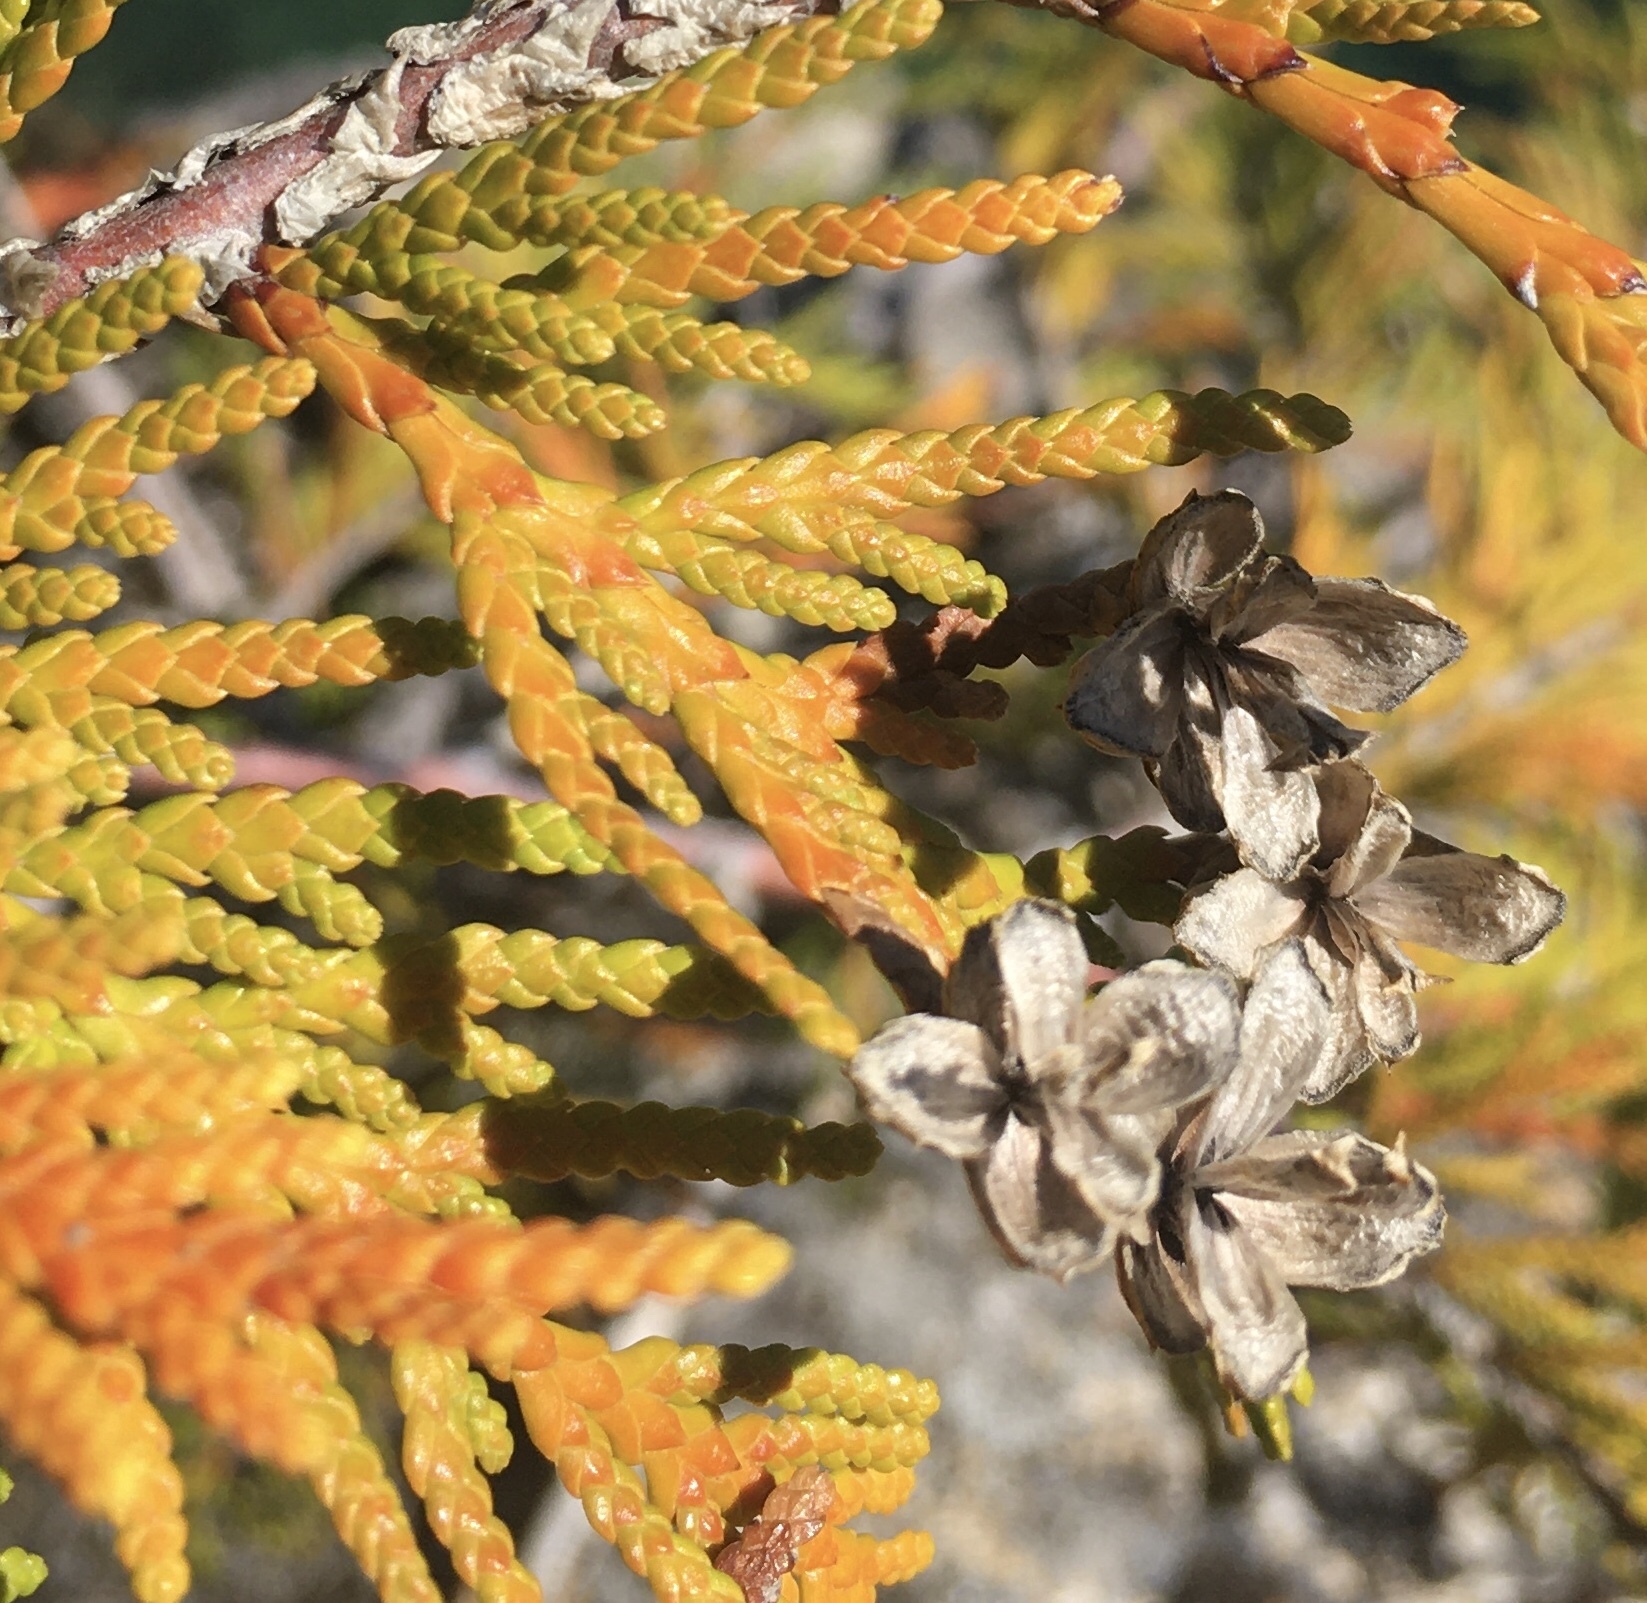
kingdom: Plantae
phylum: Tracheophyta
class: Pinopsida
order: Pinales
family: Cupressaceae
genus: Thuja
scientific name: Thuja plicata
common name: Western red-cedar
